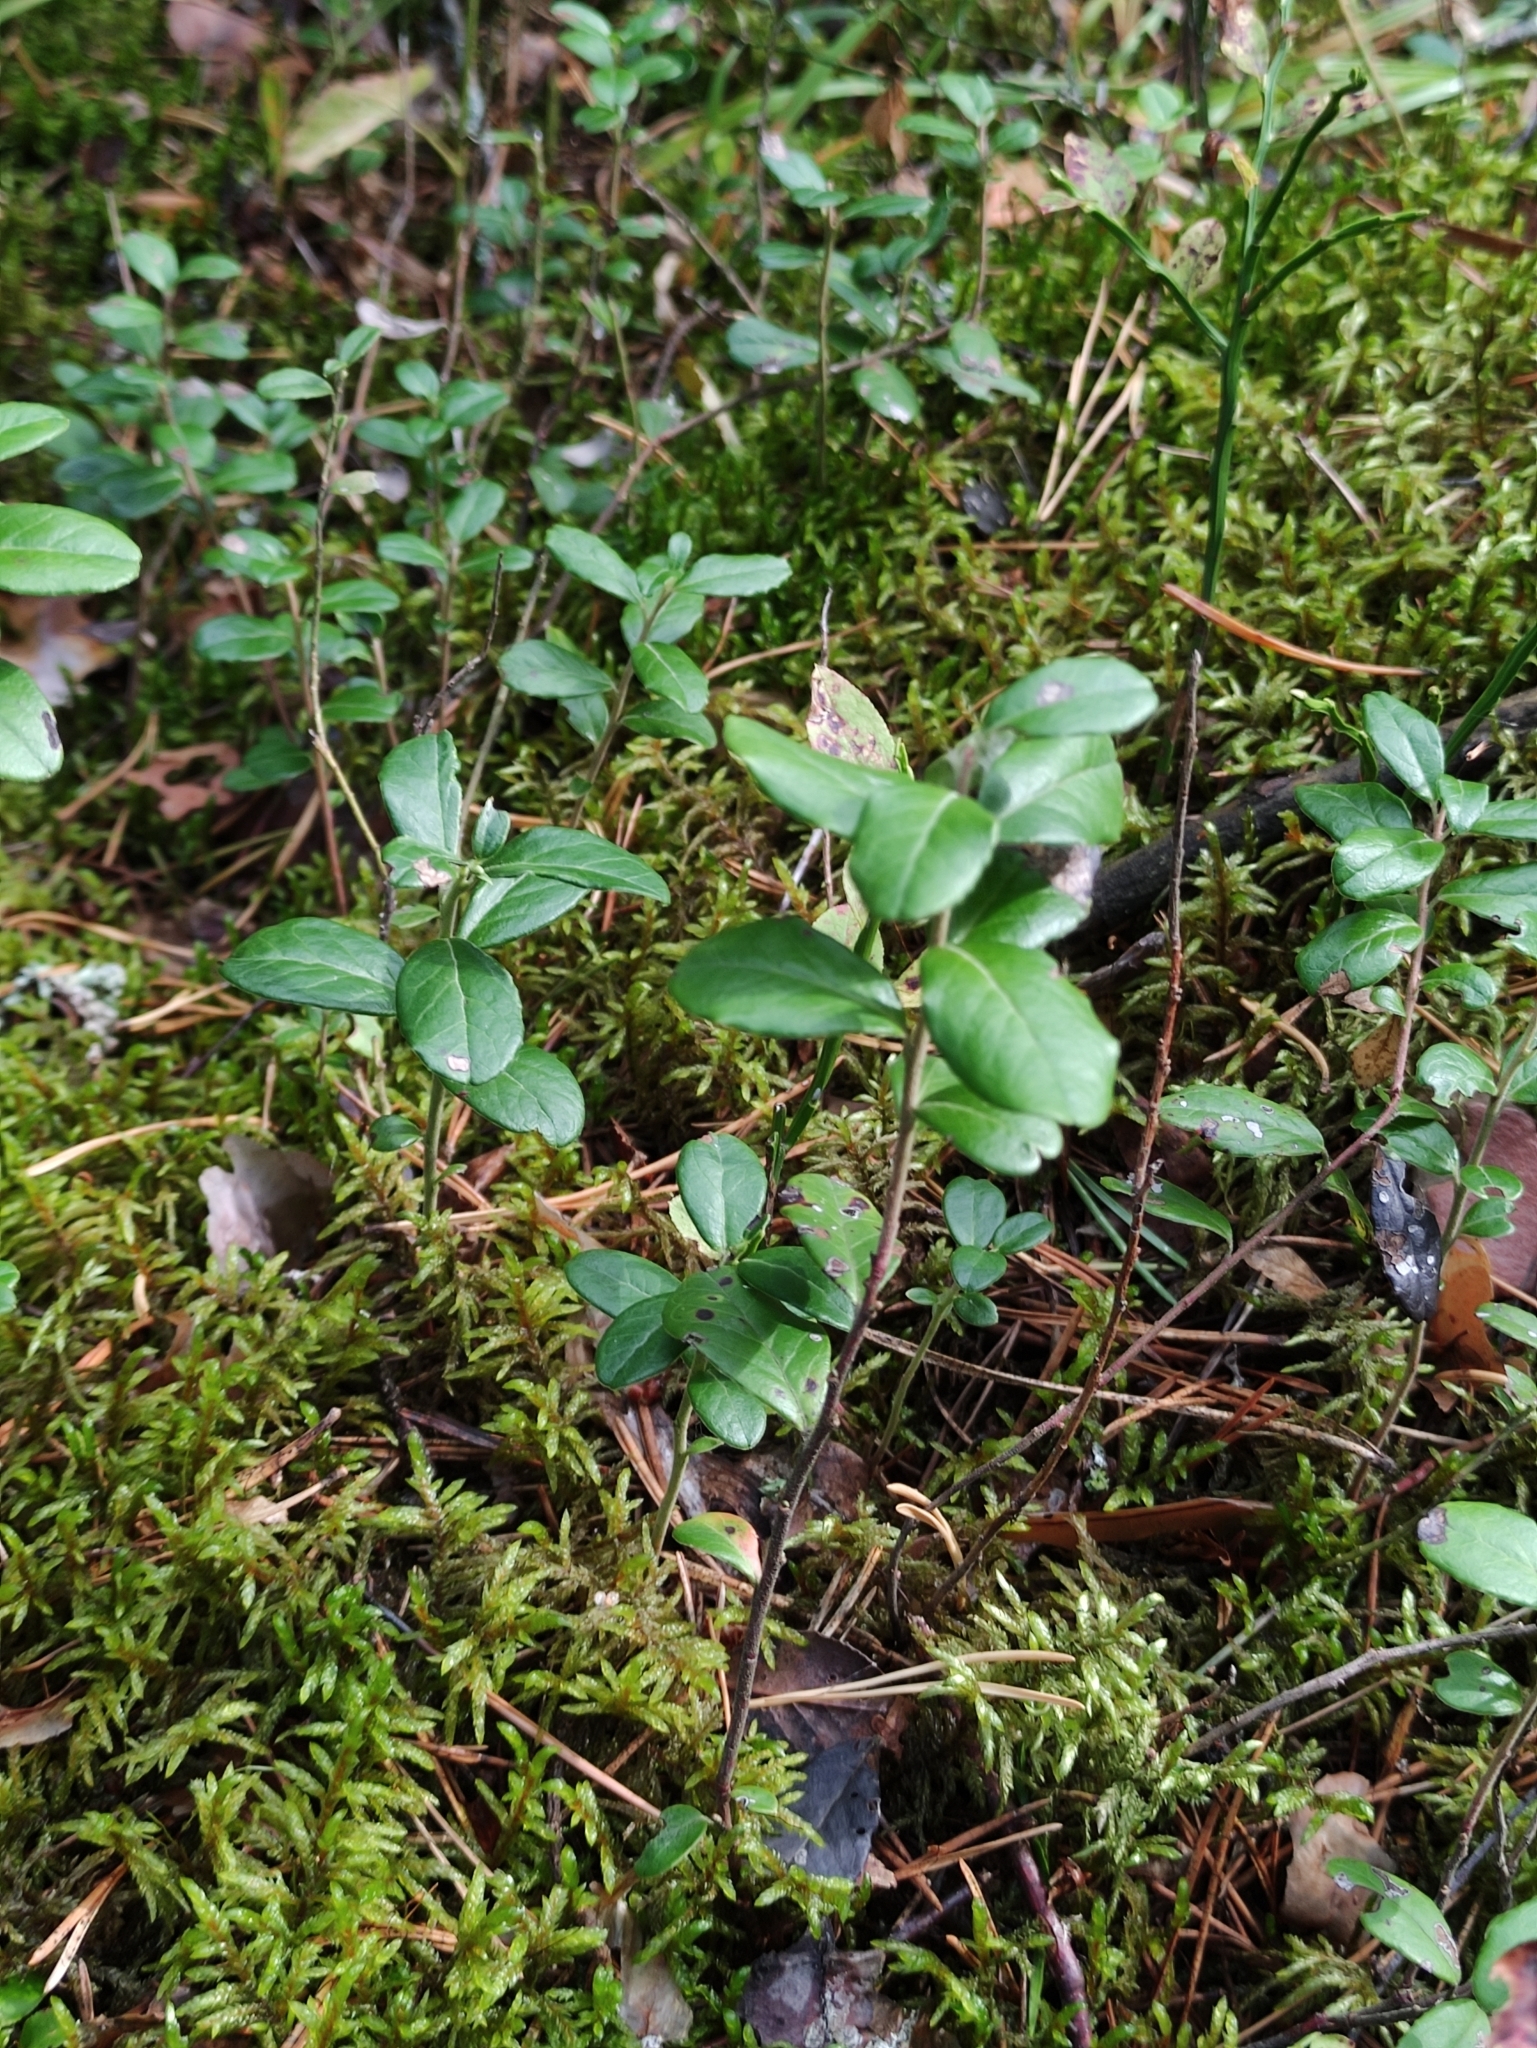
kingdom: Plantae
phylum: Tracheophyta
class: Magnoliopsida
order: Ericales
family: Ericaceae
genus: Vaccinium
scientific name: Vaccinium vitis-idaea
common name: Cowberry
